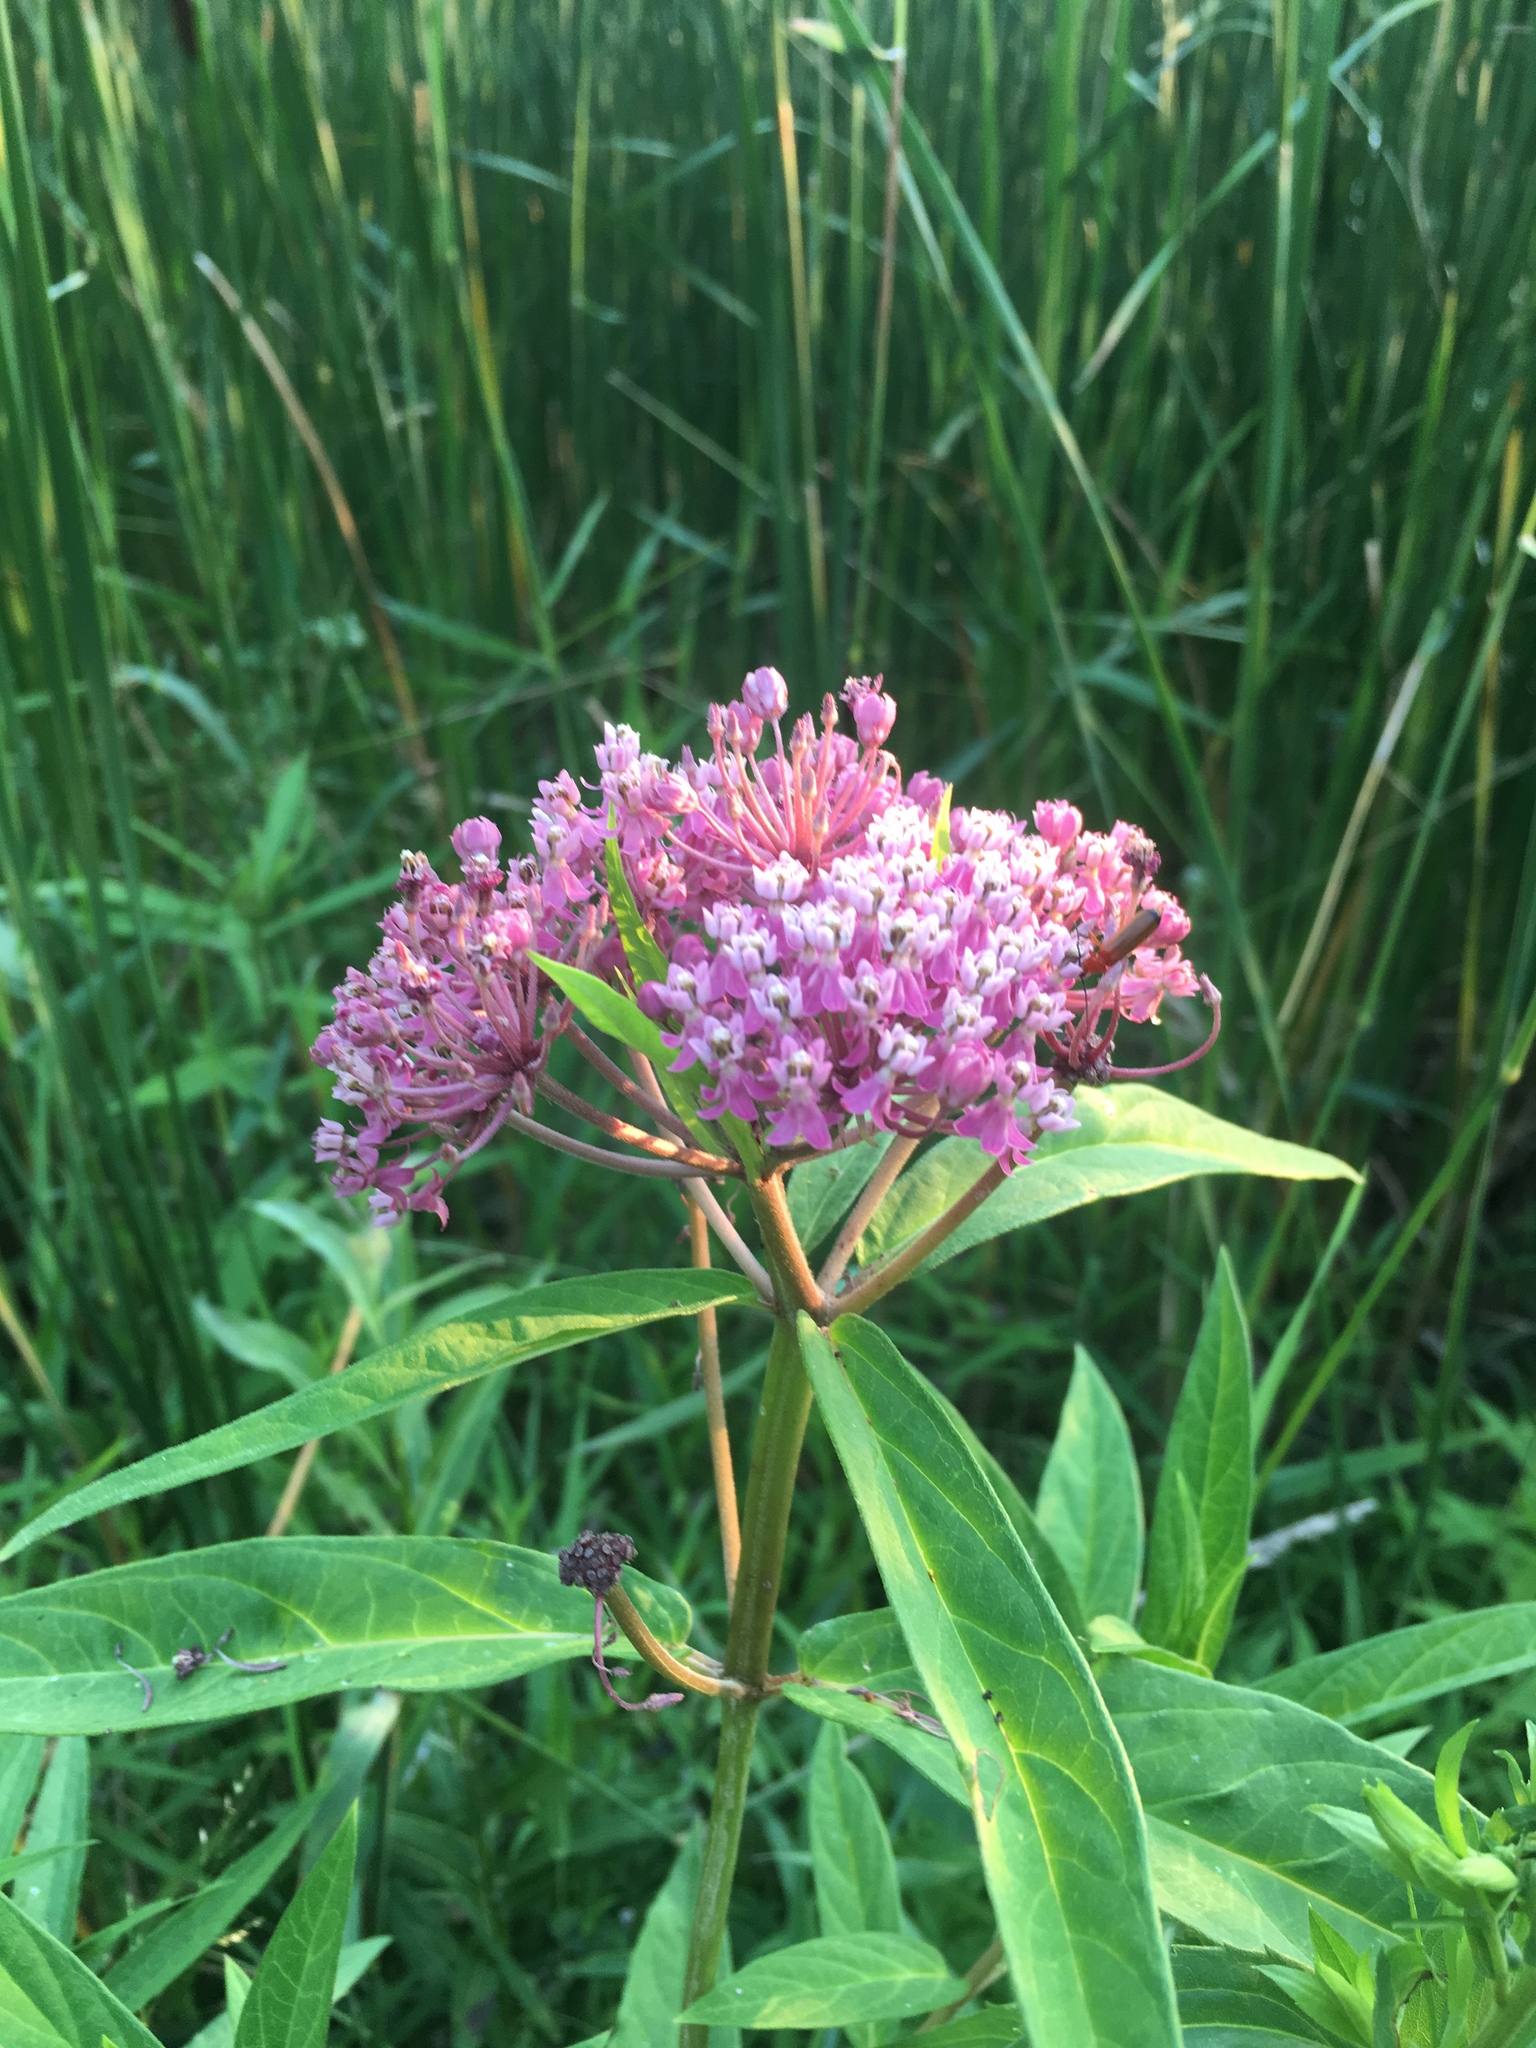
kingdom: Plantae
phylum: Tracheophyta
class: Magnoliopsida
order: Gentianales
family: Apocynaceae
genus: Asclepias
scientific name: Asclepias incarnata
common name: Swamp milkweed
